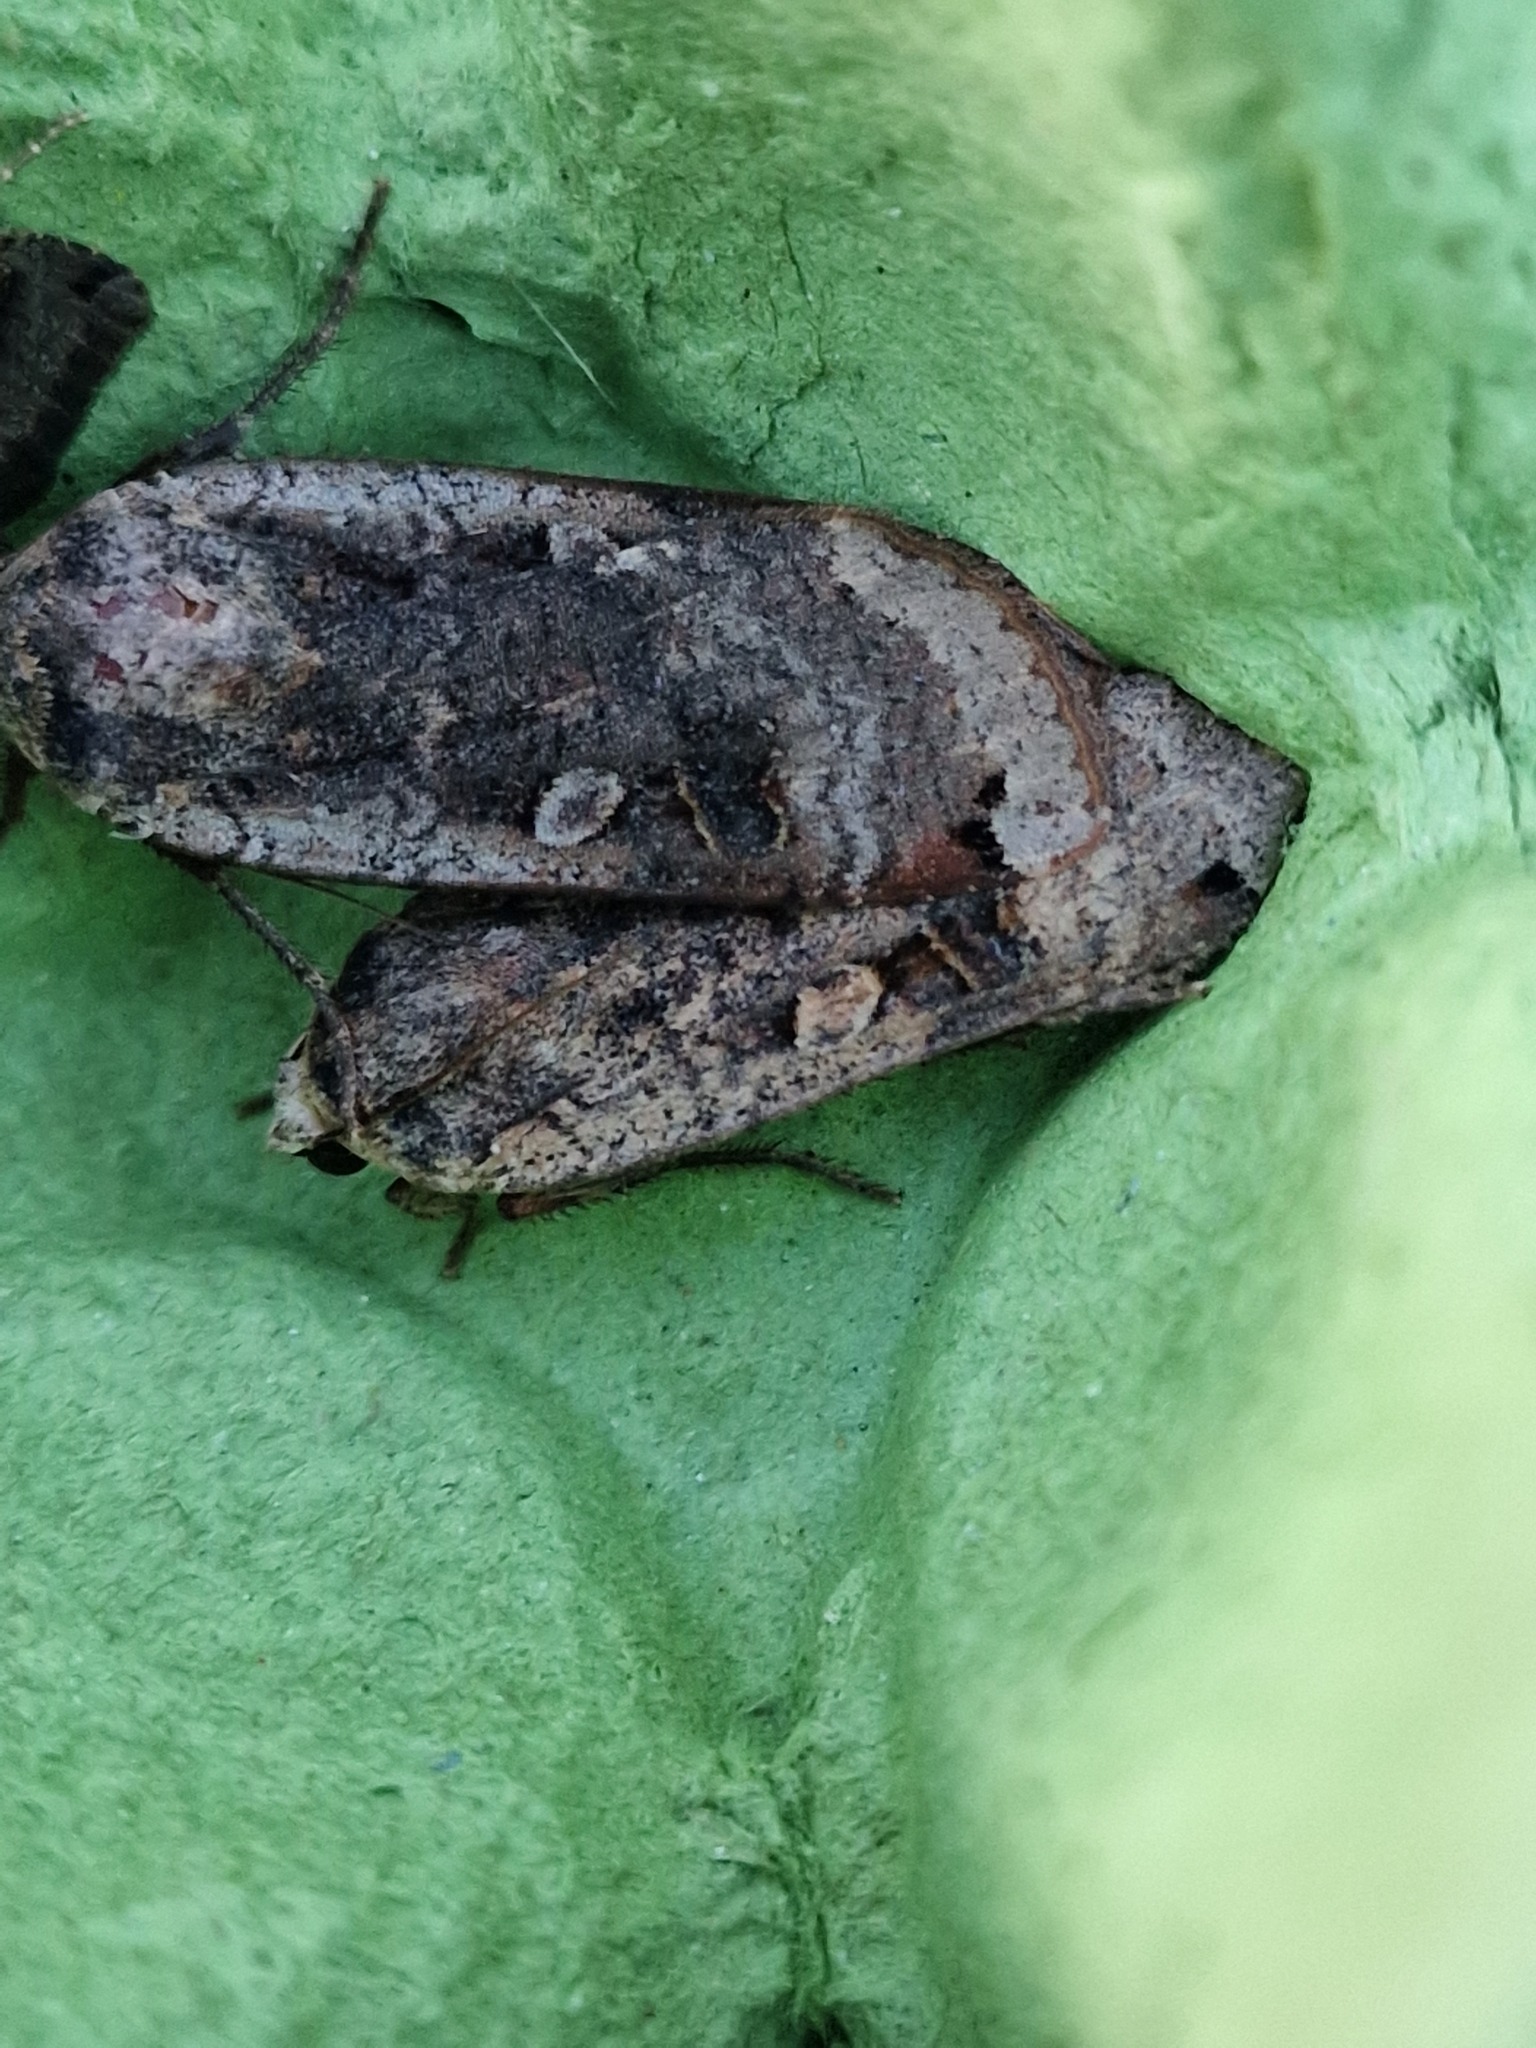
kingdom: Animalia
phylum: Arthropoda
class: Insecta
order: Lepidoptera
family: Noctuidae
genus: Noctua
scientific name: Noctua pronuba
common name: Large yellow underwing
